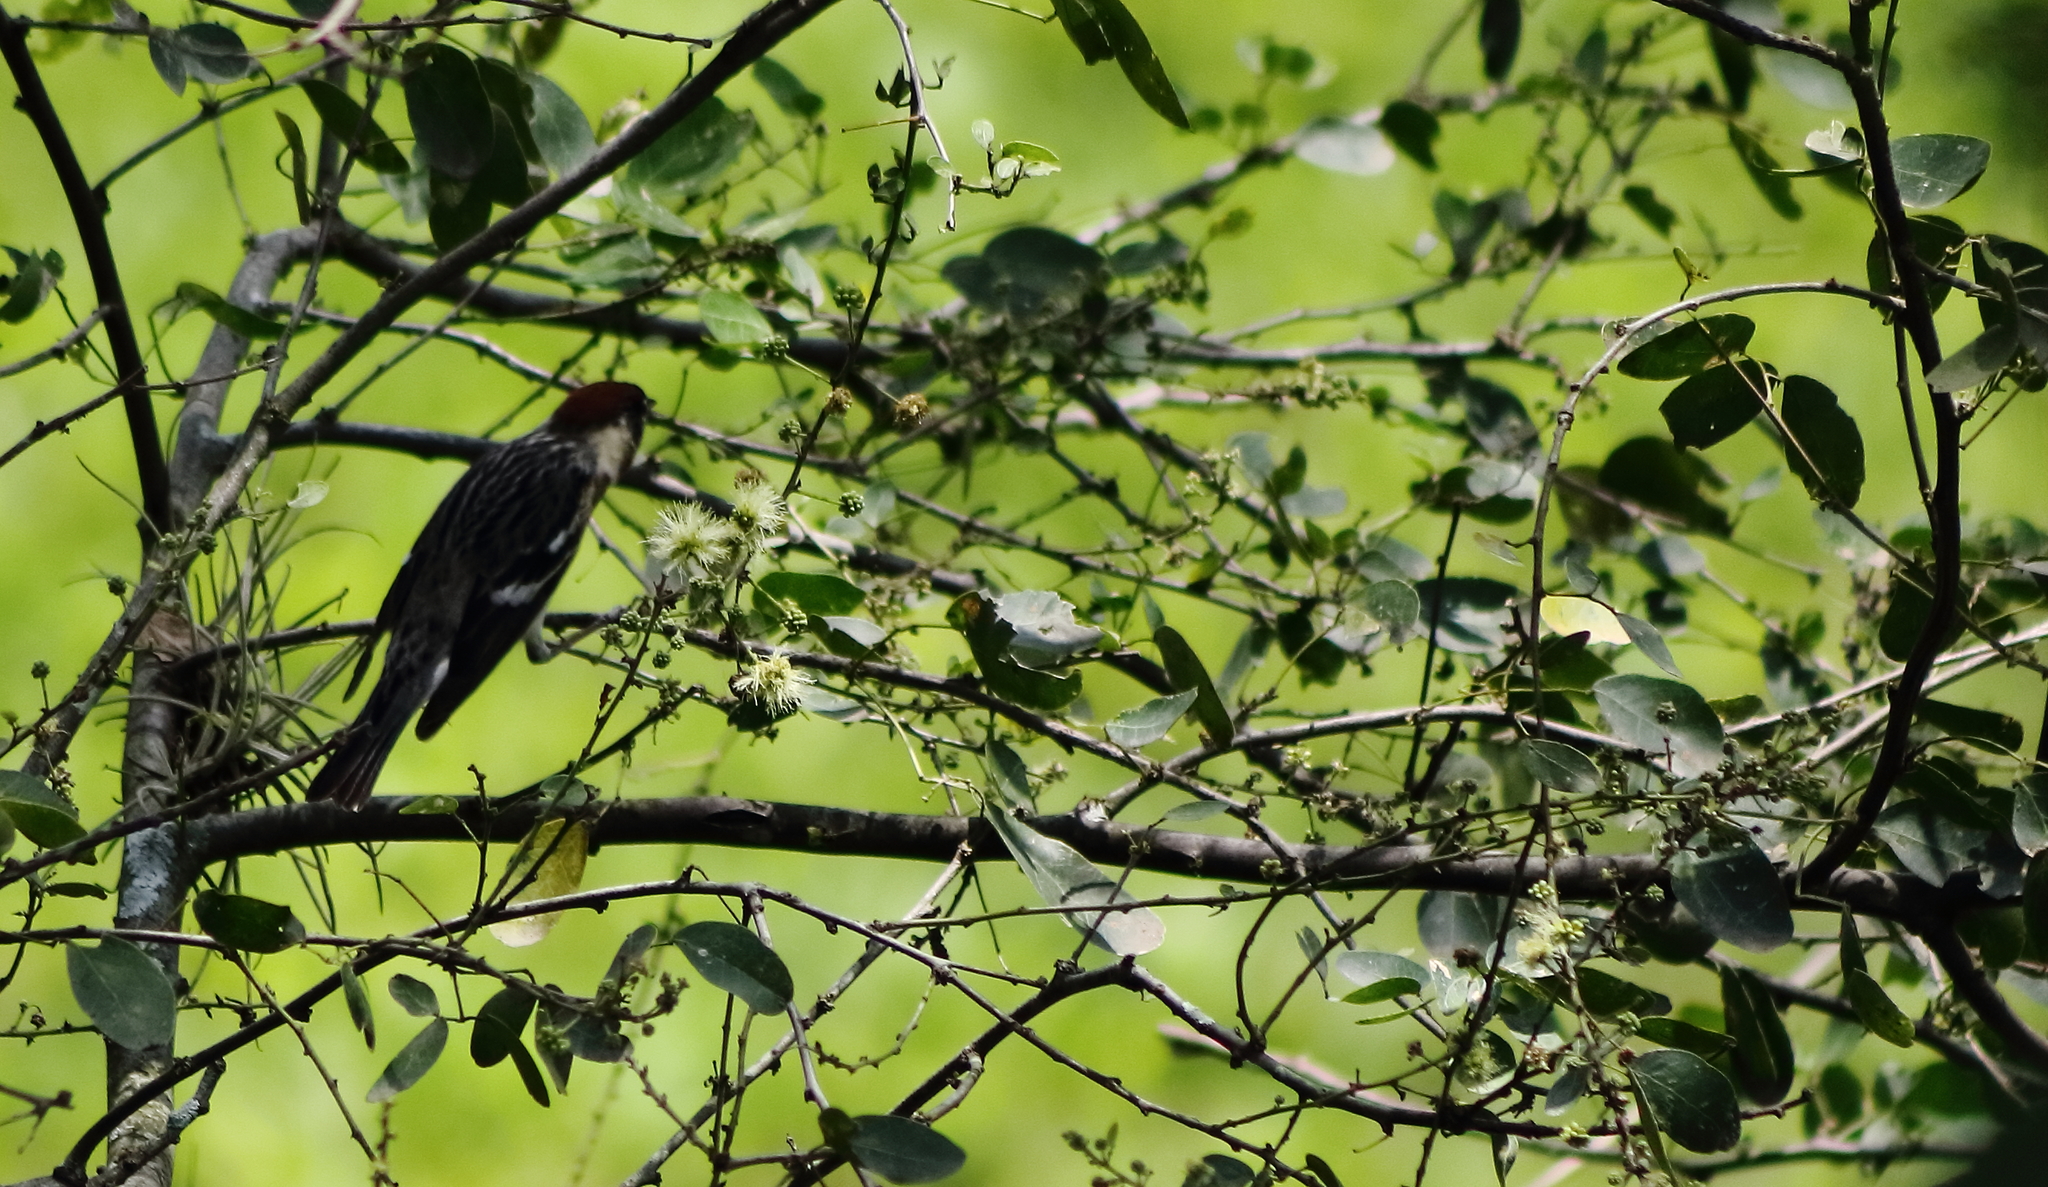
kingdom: Animalia
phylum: Chordata
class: Aves
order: Passeriformes
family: Parulidae
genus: Setophaga
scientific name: Setophaga castanea
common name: Bay-breasted warbler
